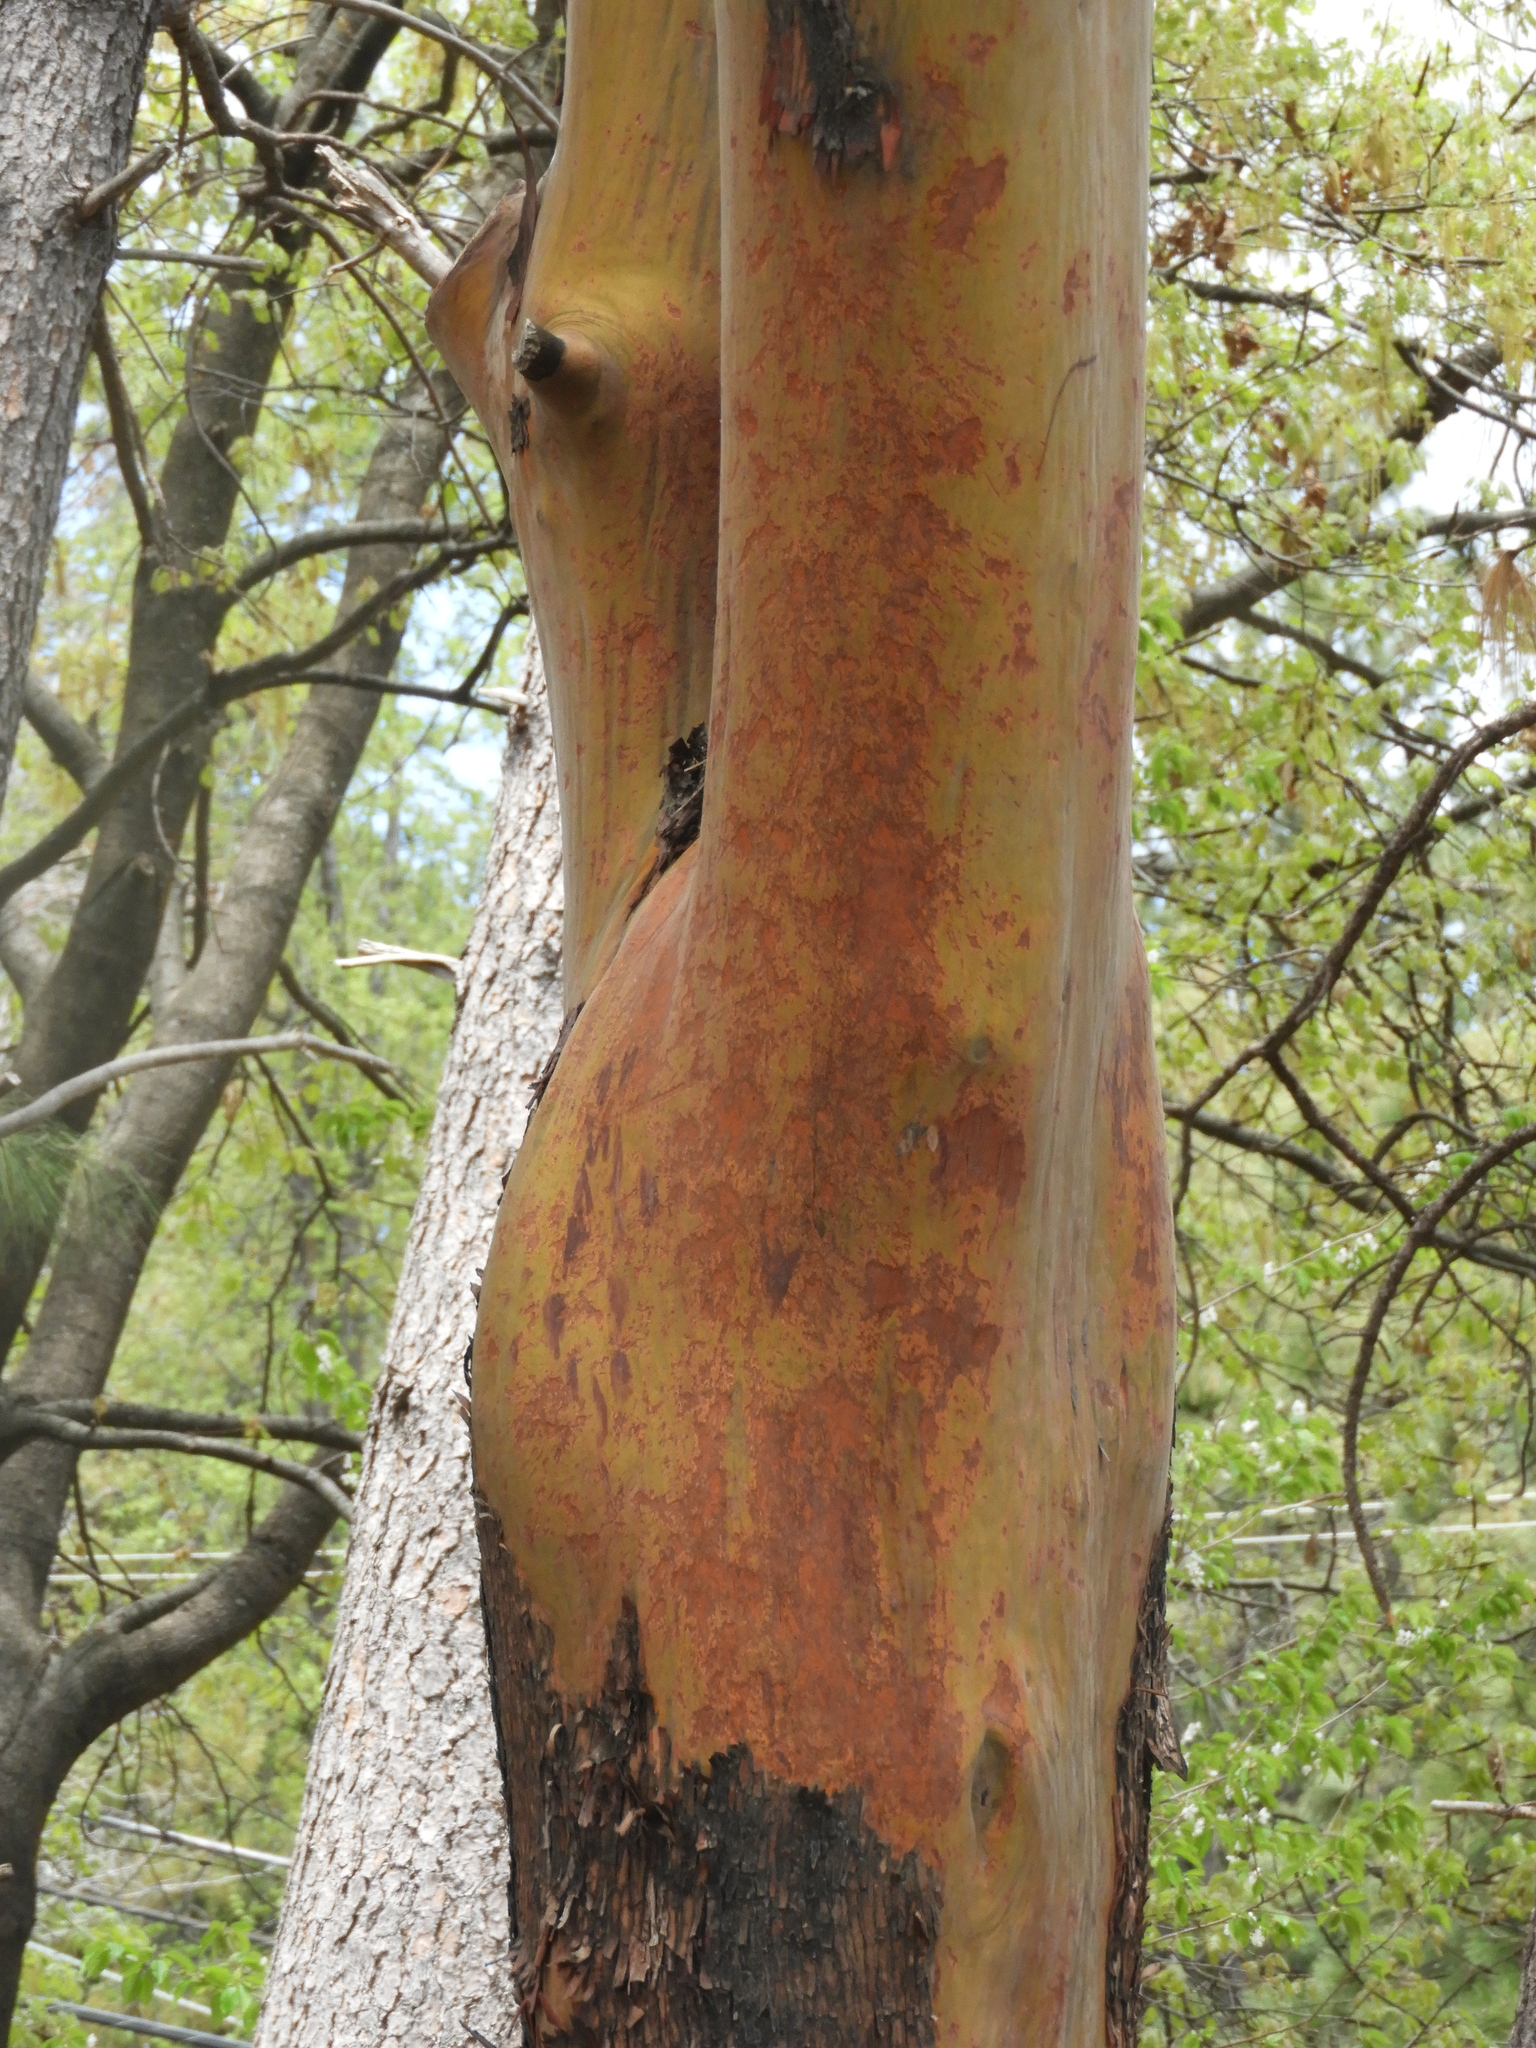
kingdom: Plantae
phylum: Tracheophyta
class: Magnoliopsida
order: Ericales
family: Ericaceae
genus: Arbutus
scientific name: Arbutus menziesii
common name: Pacific madrone
